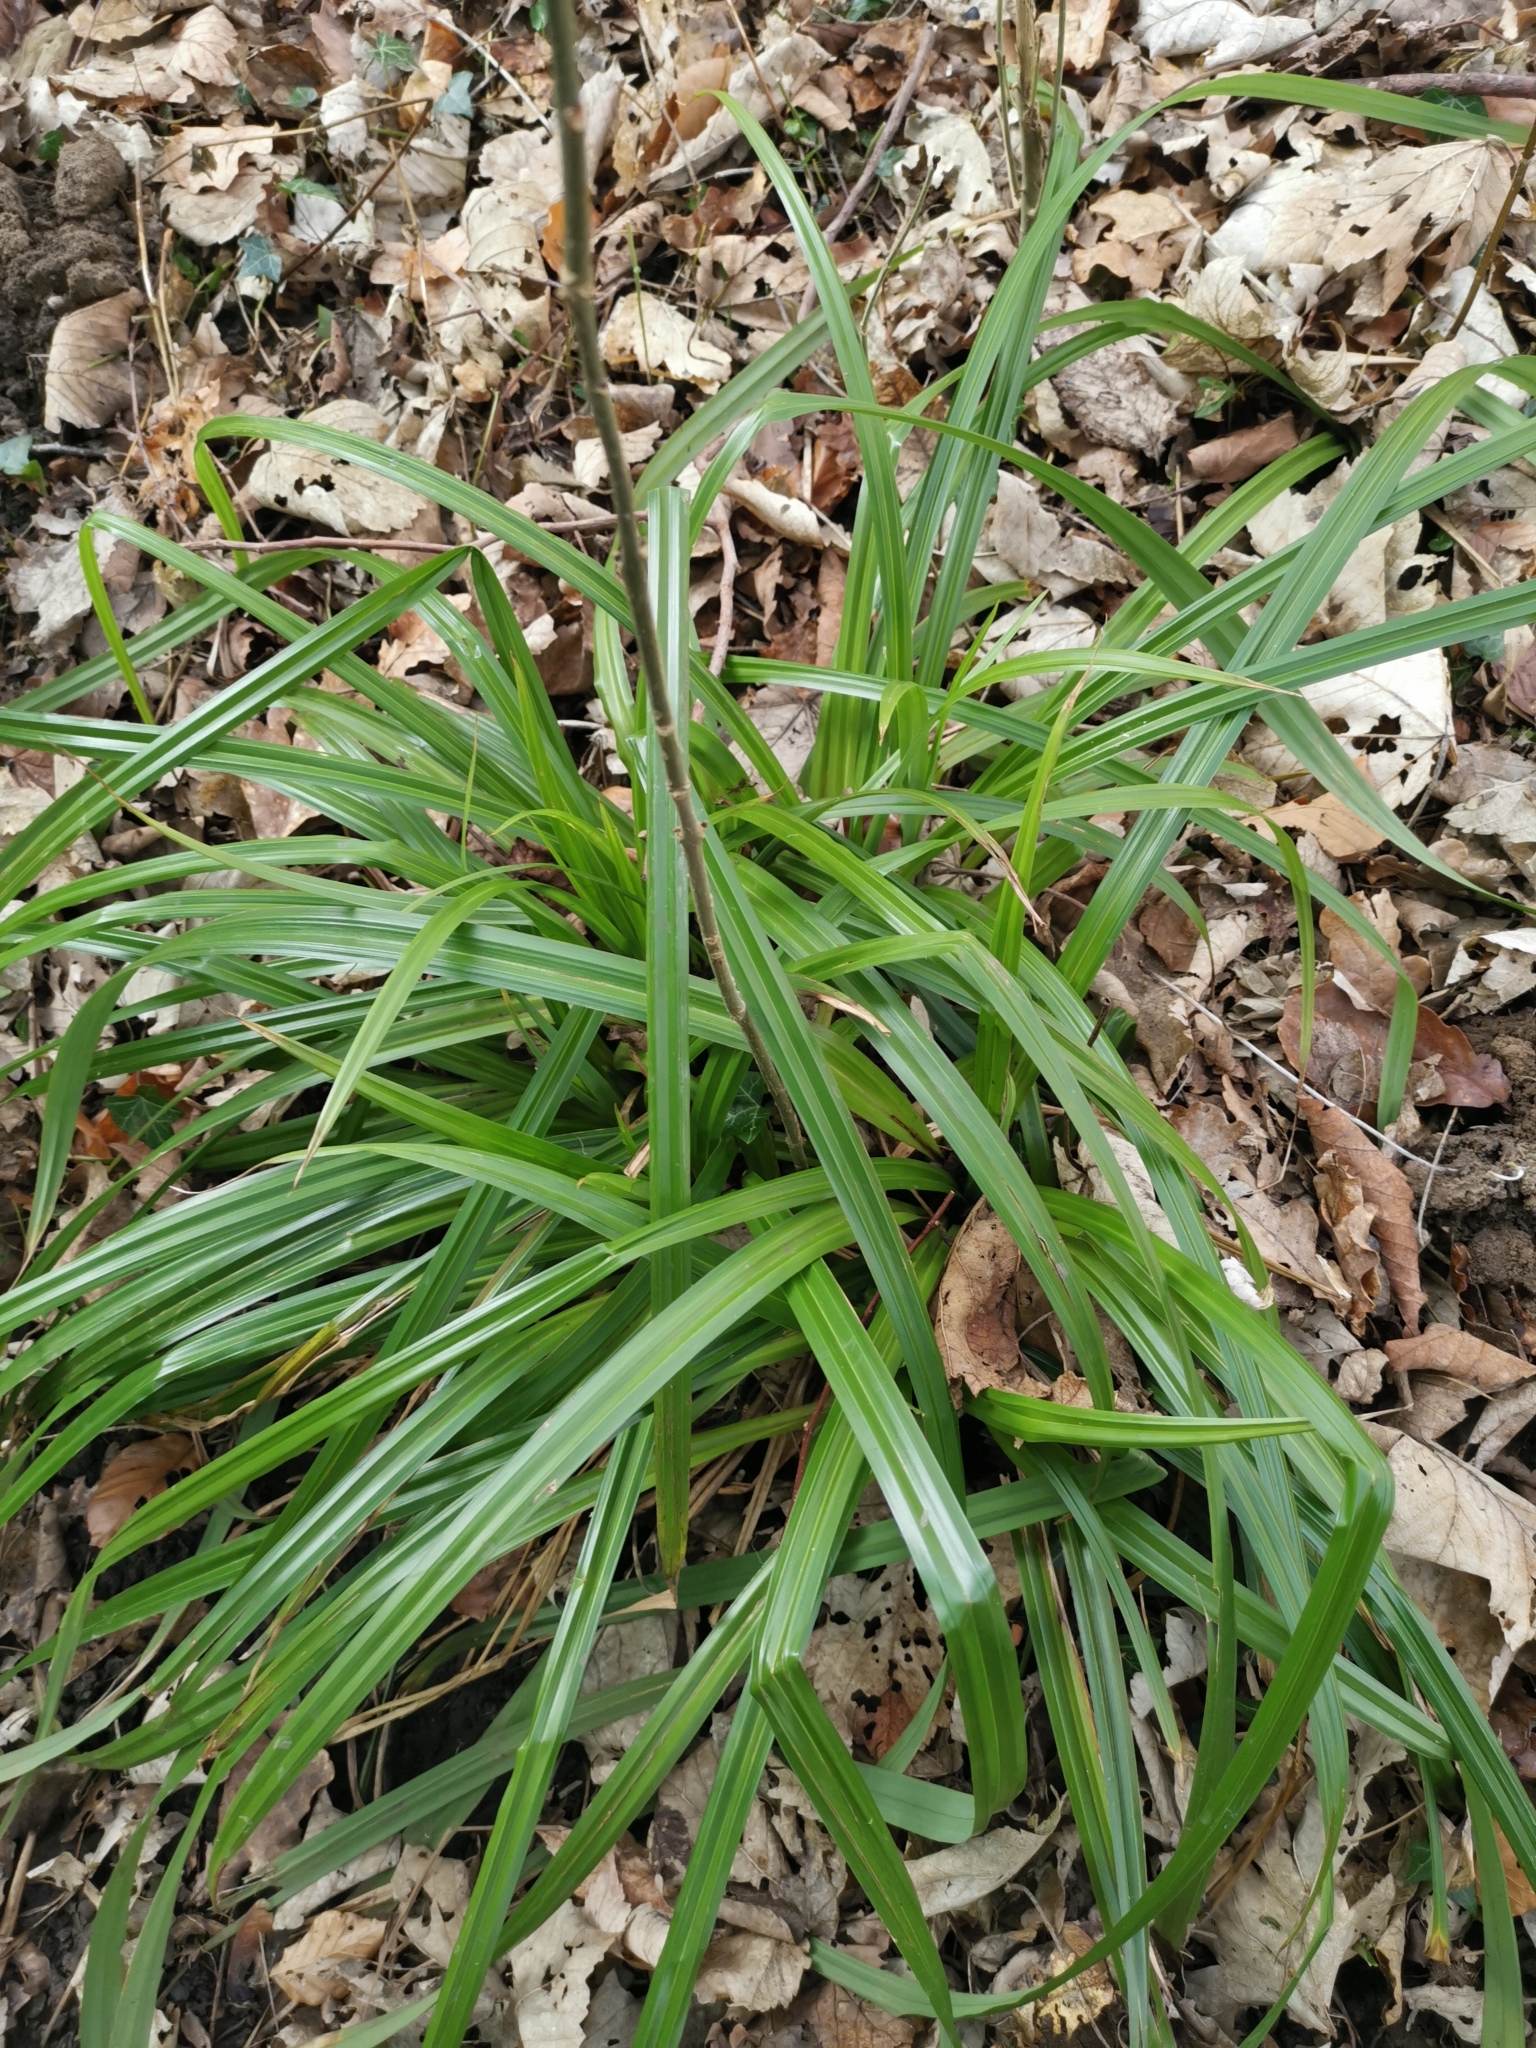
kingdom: Plantae
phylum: Tracheophyta
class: Liliopsida
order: Poales
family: Cyperaceae
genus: Carex
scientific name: Carex pendula
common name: Pendulous sedge
